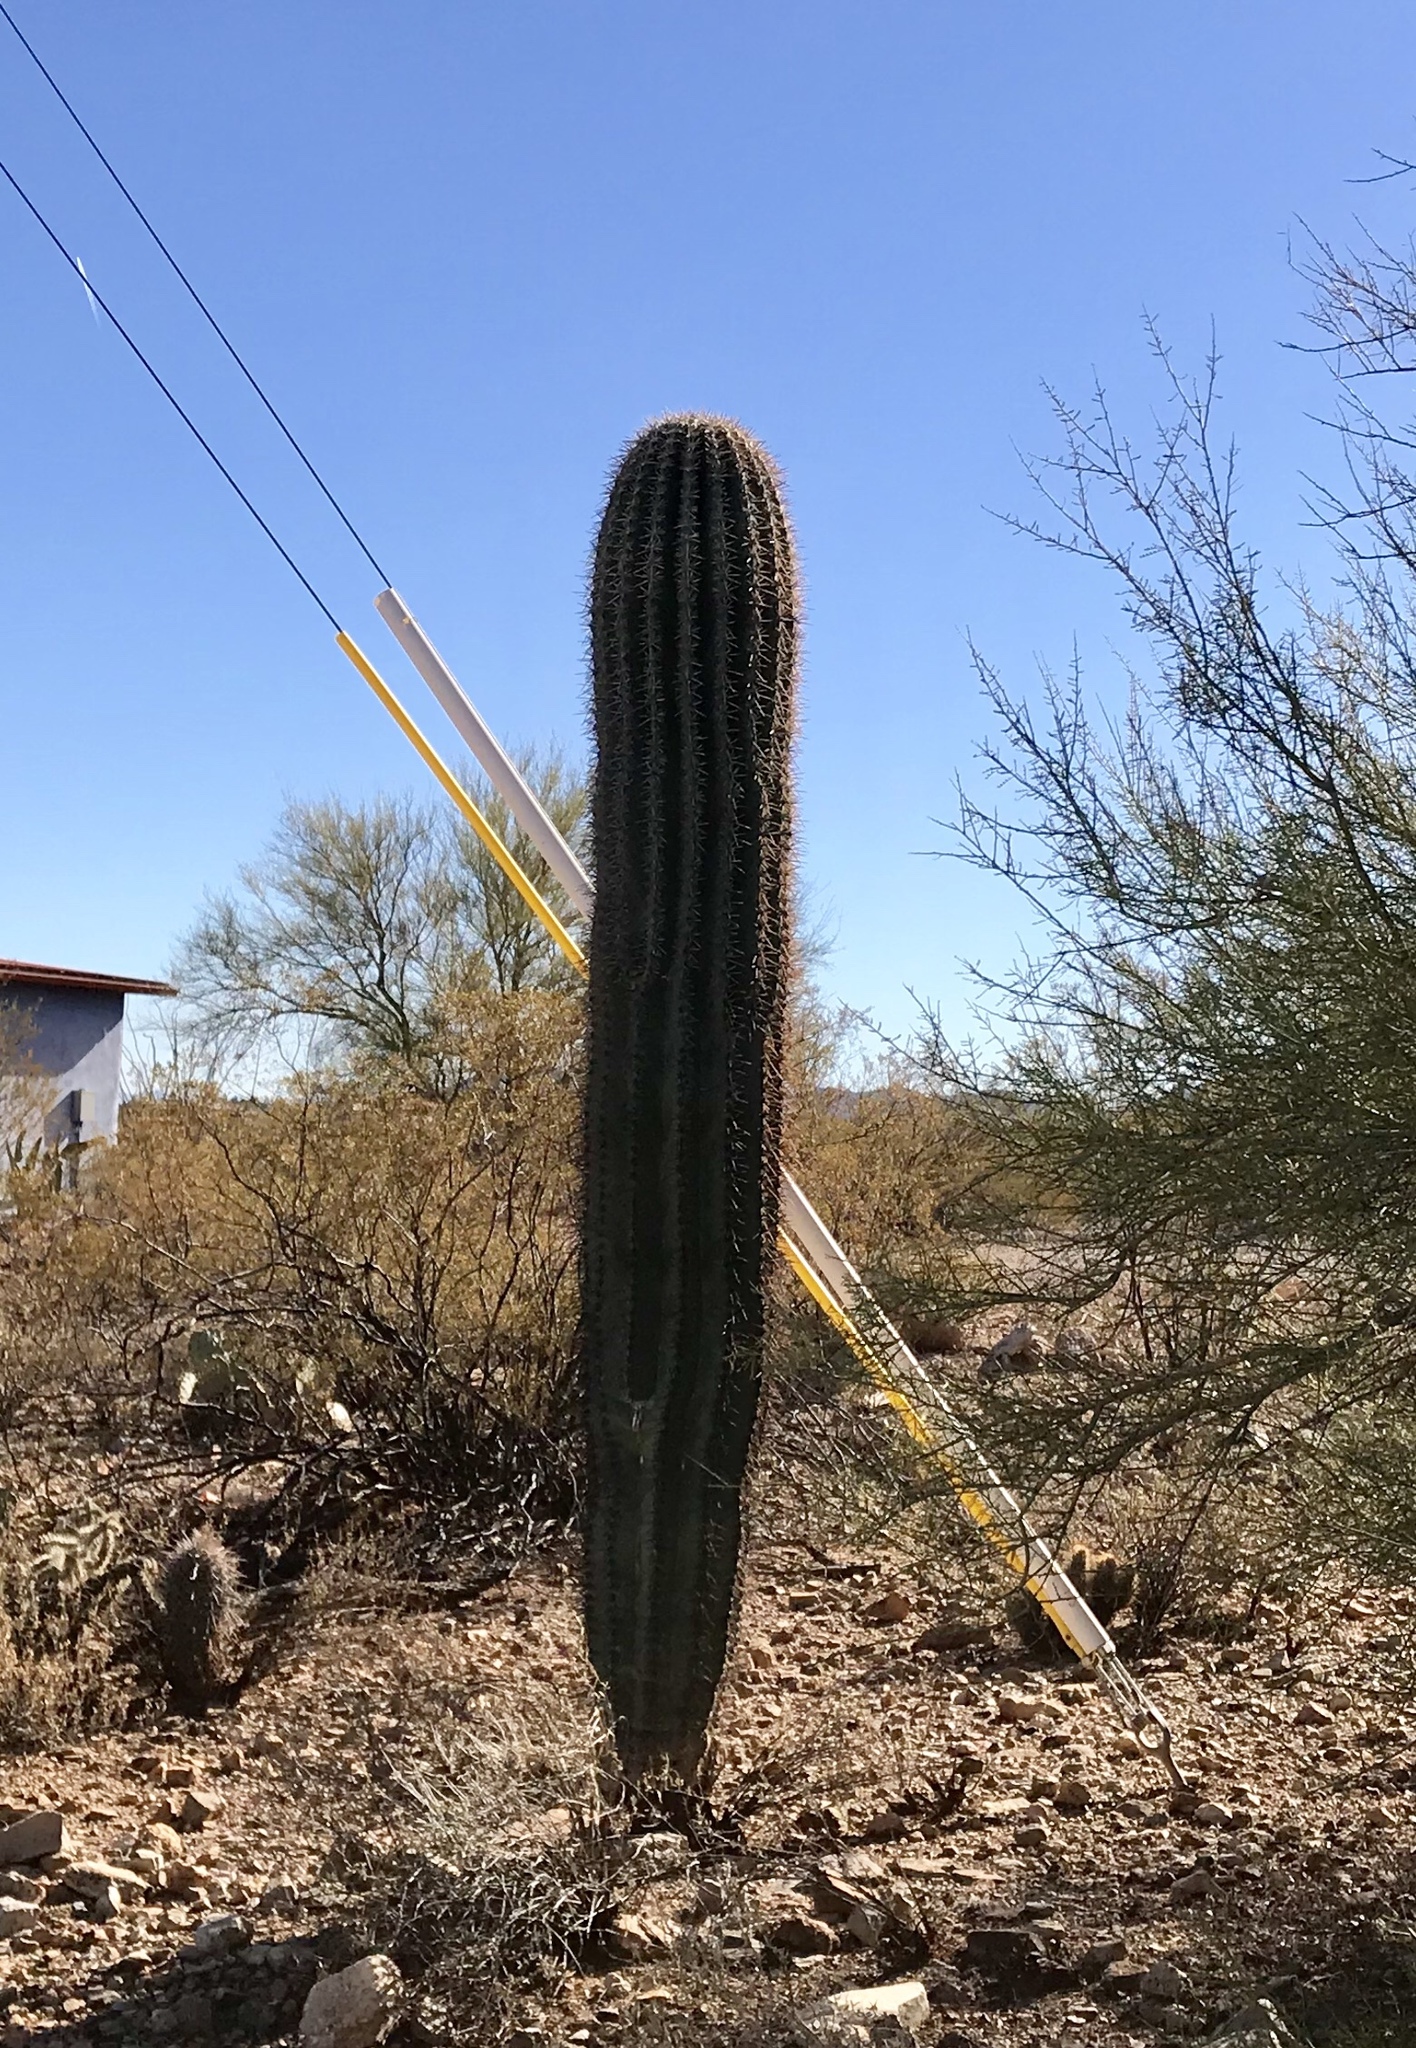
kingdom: Plantae
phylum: Tracheophyta
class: Magnoliopsida
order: Caryophyllales
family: Cactaceae
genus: Carnegiea
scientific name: Carnegiea gigantea
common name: Saguaro
